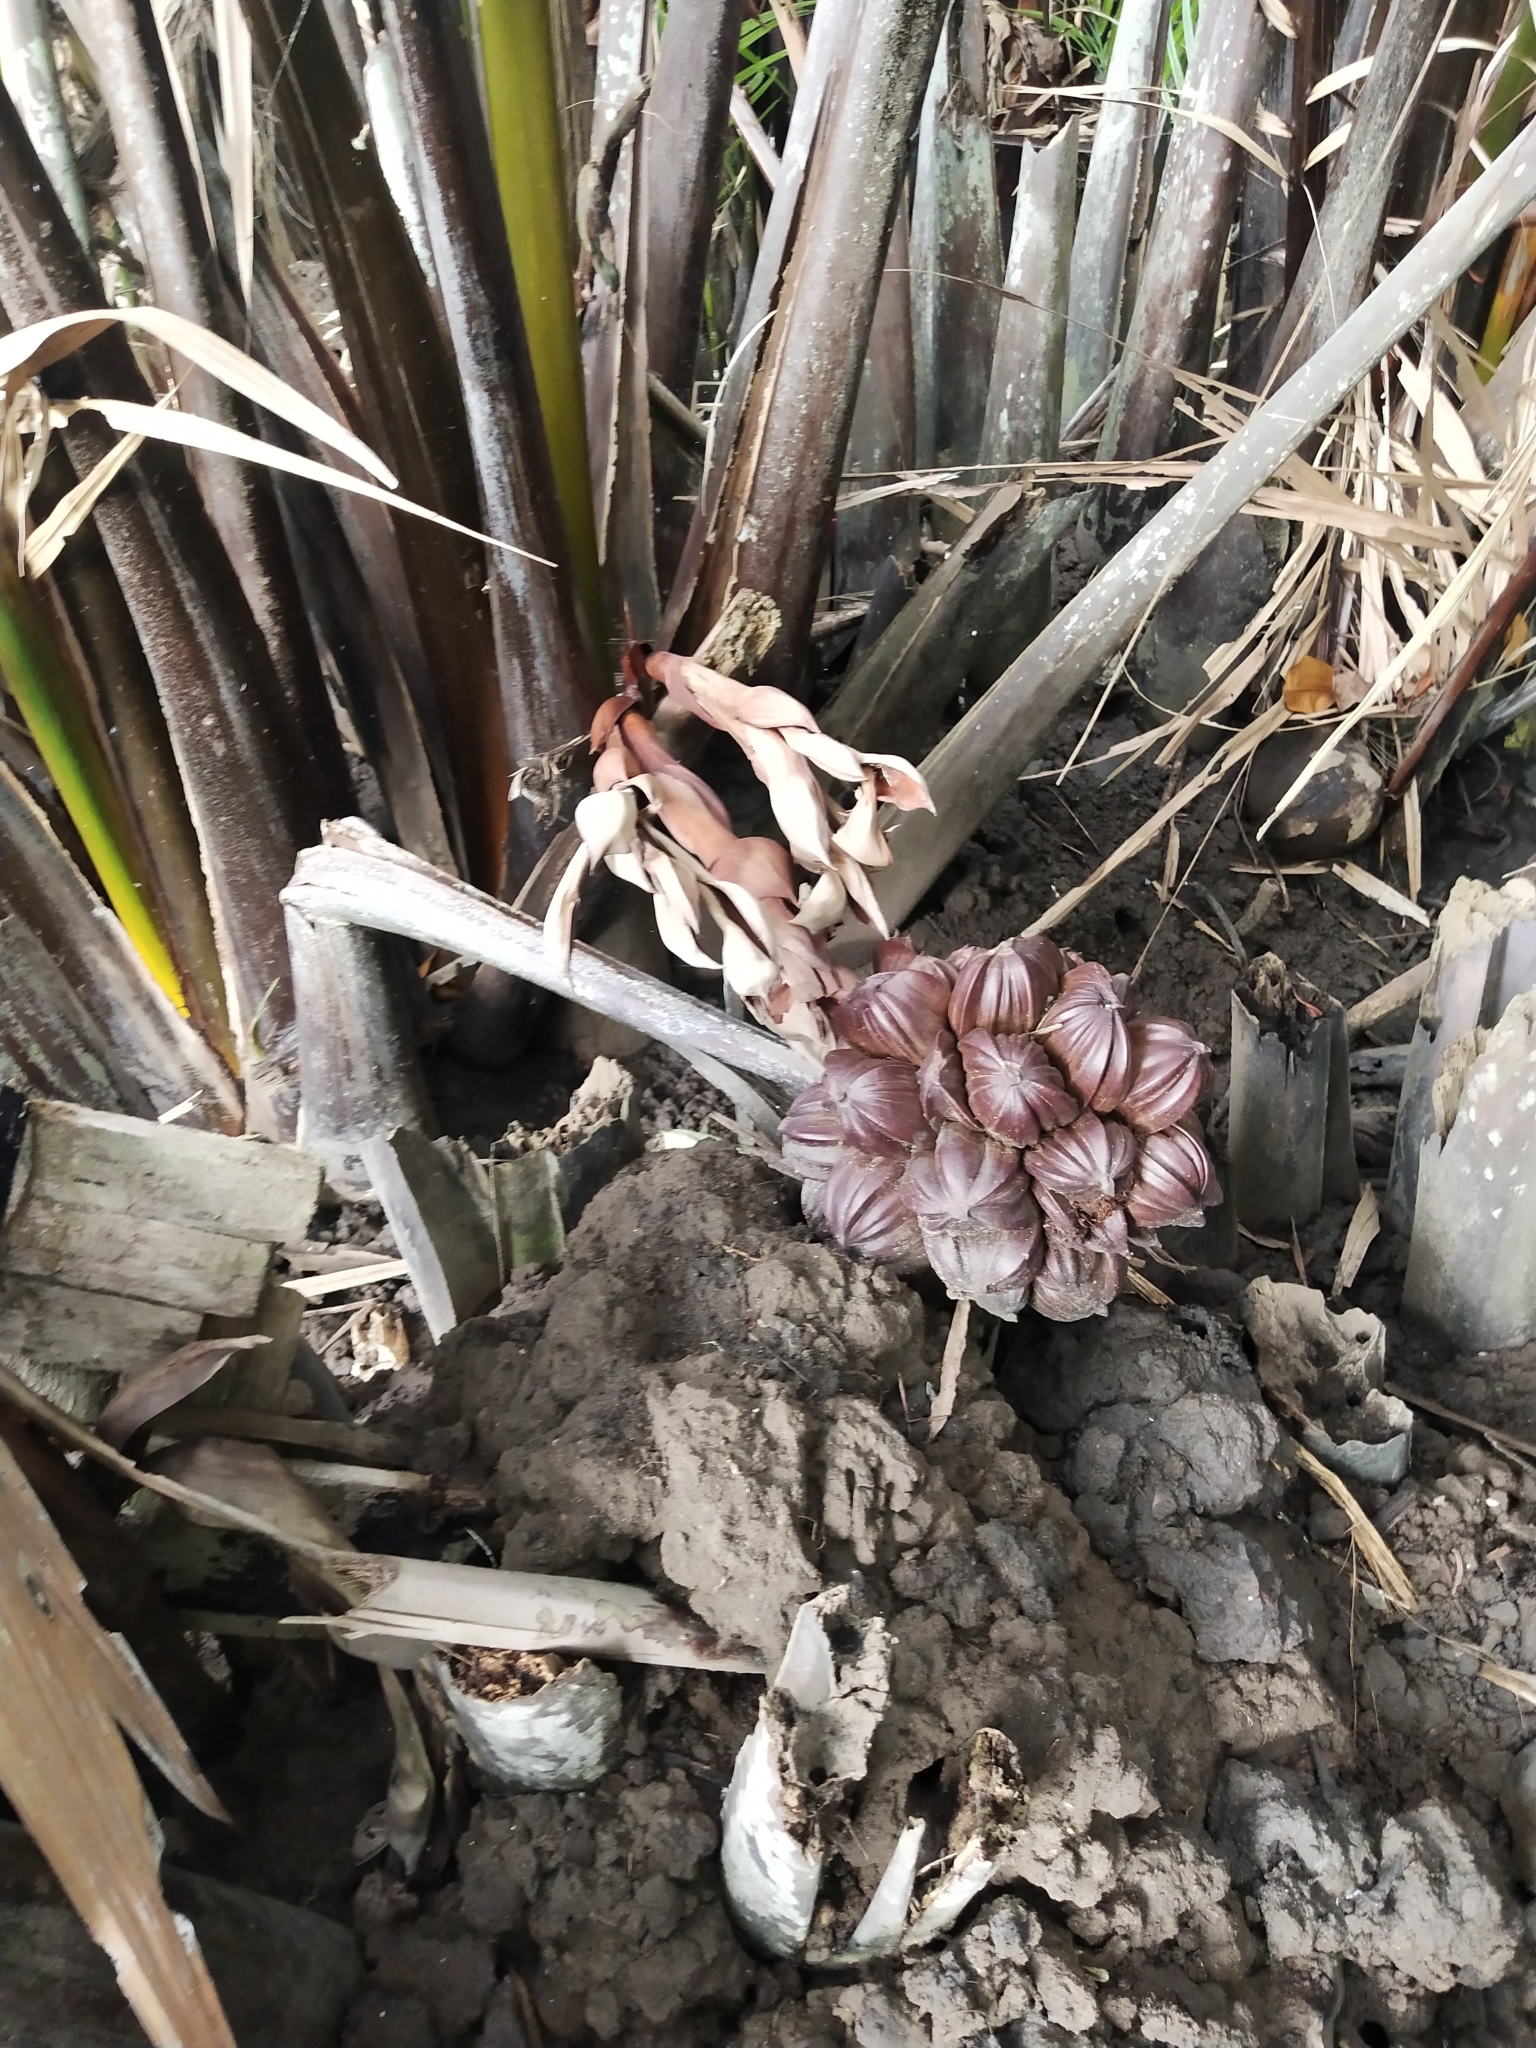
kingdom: Plantae
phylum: Tracheophyta
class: Liliopsida
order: Arecales
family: Arecaceae
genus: Nypa
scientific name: Nypa fruticans
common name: Mangrove palm
